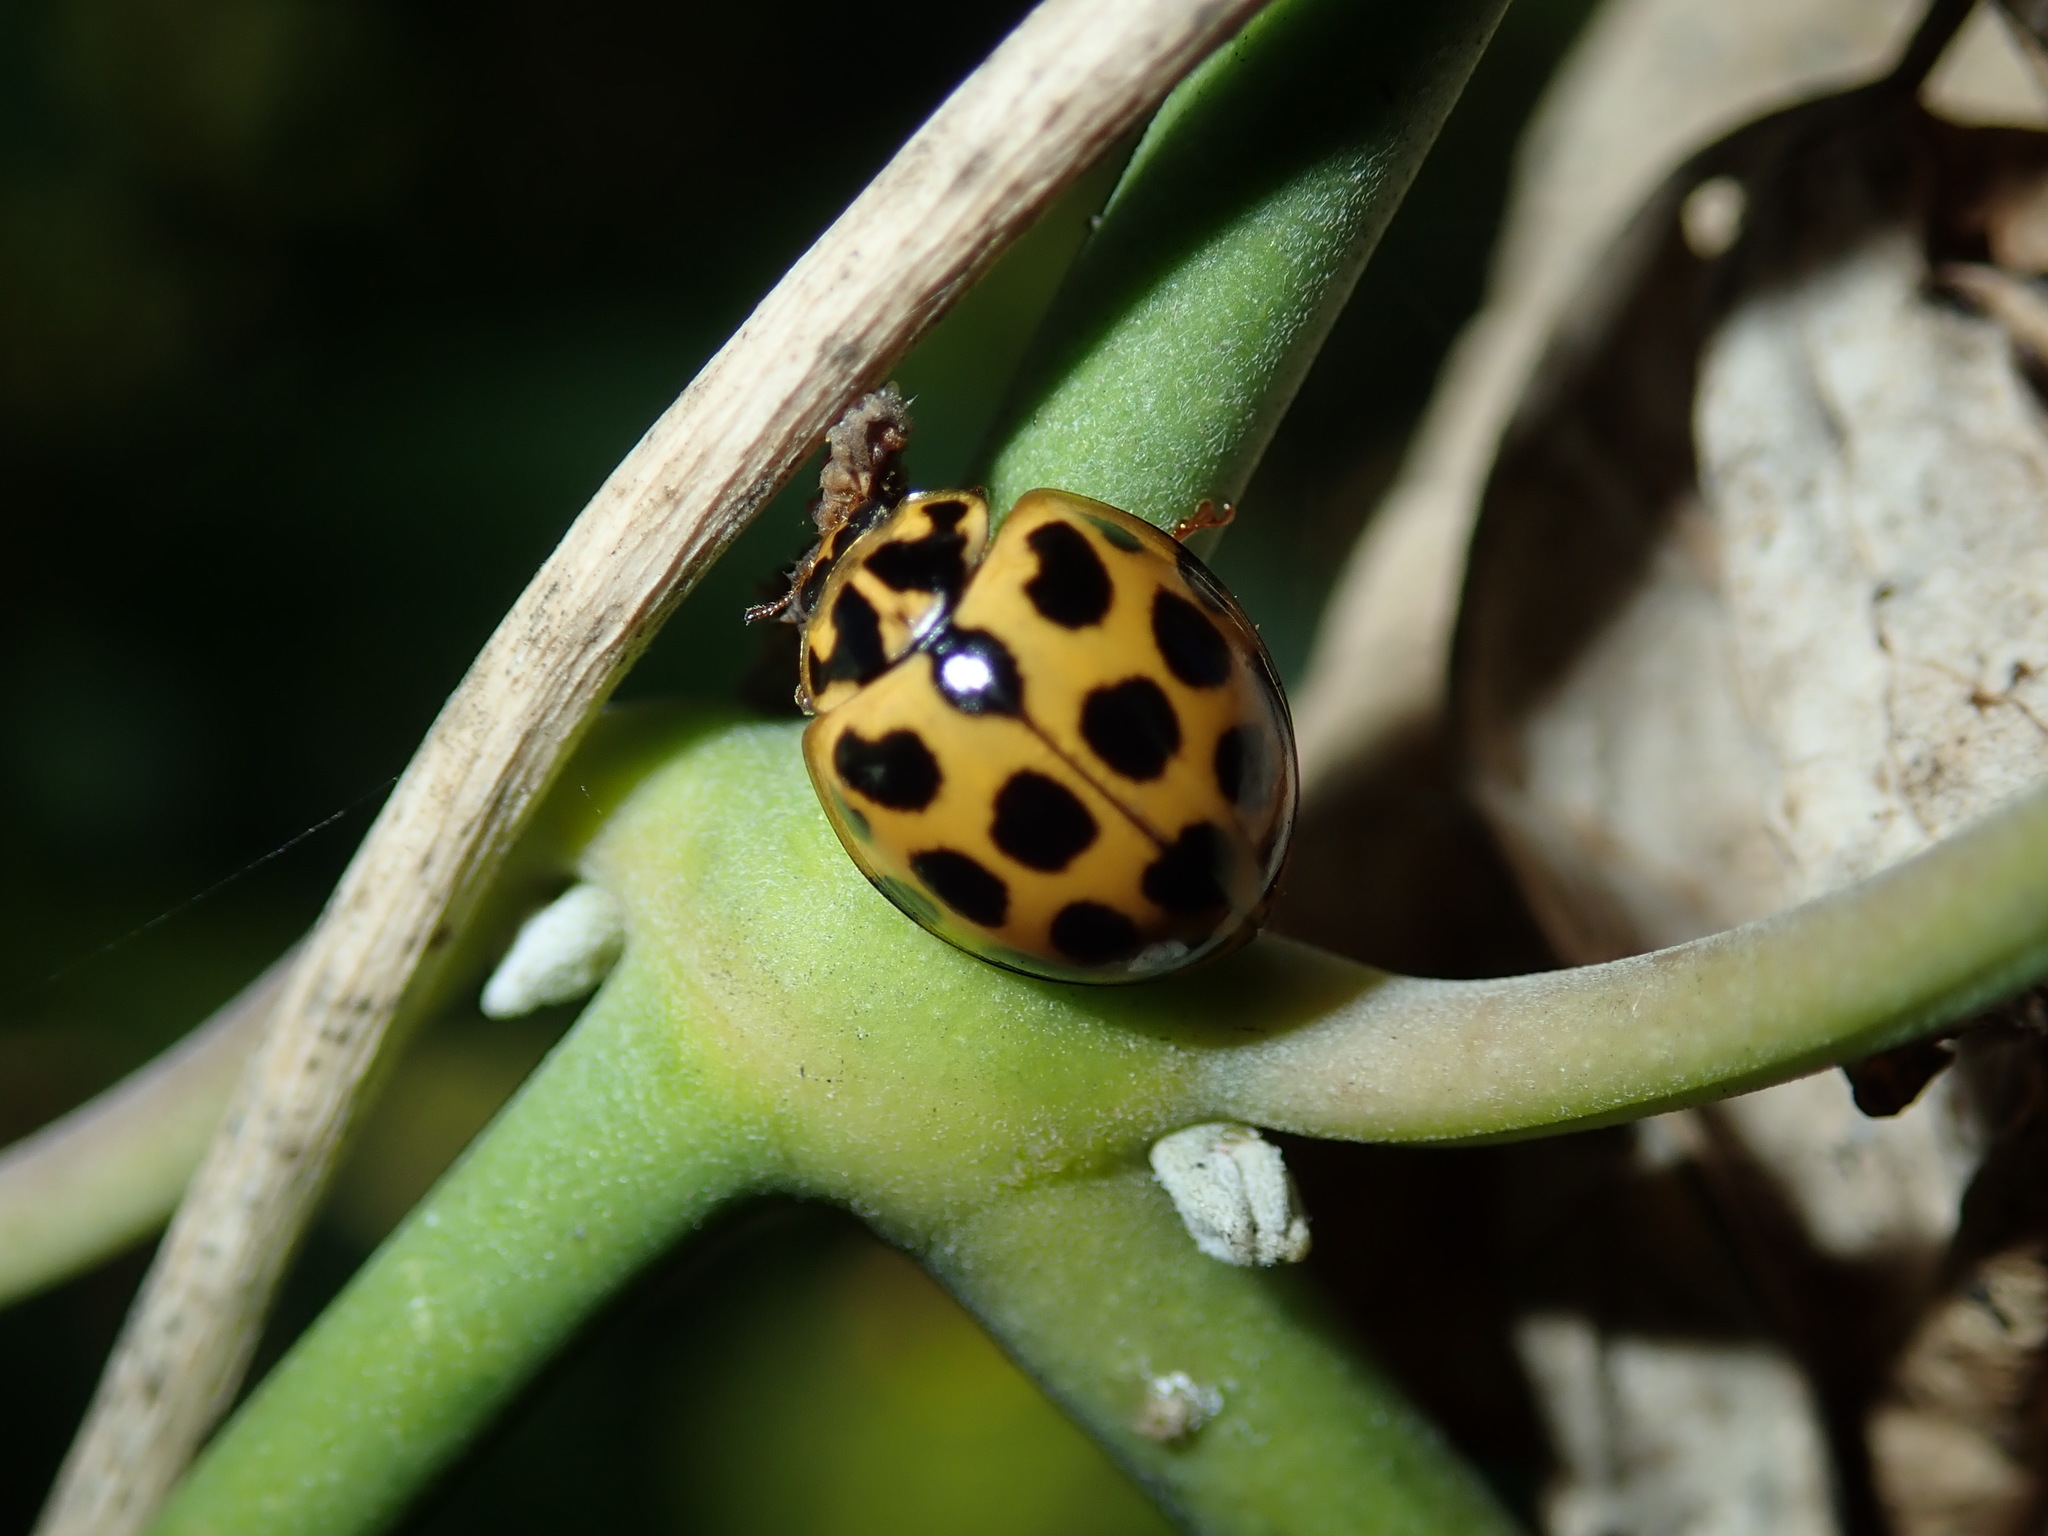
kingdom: Animalia
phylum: Arthropoda
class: Insecta
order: Coleoptera
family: Coccinellidae
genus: Harmonia
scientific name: Harmonia conformis
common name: Common spotted ladybird beetle
